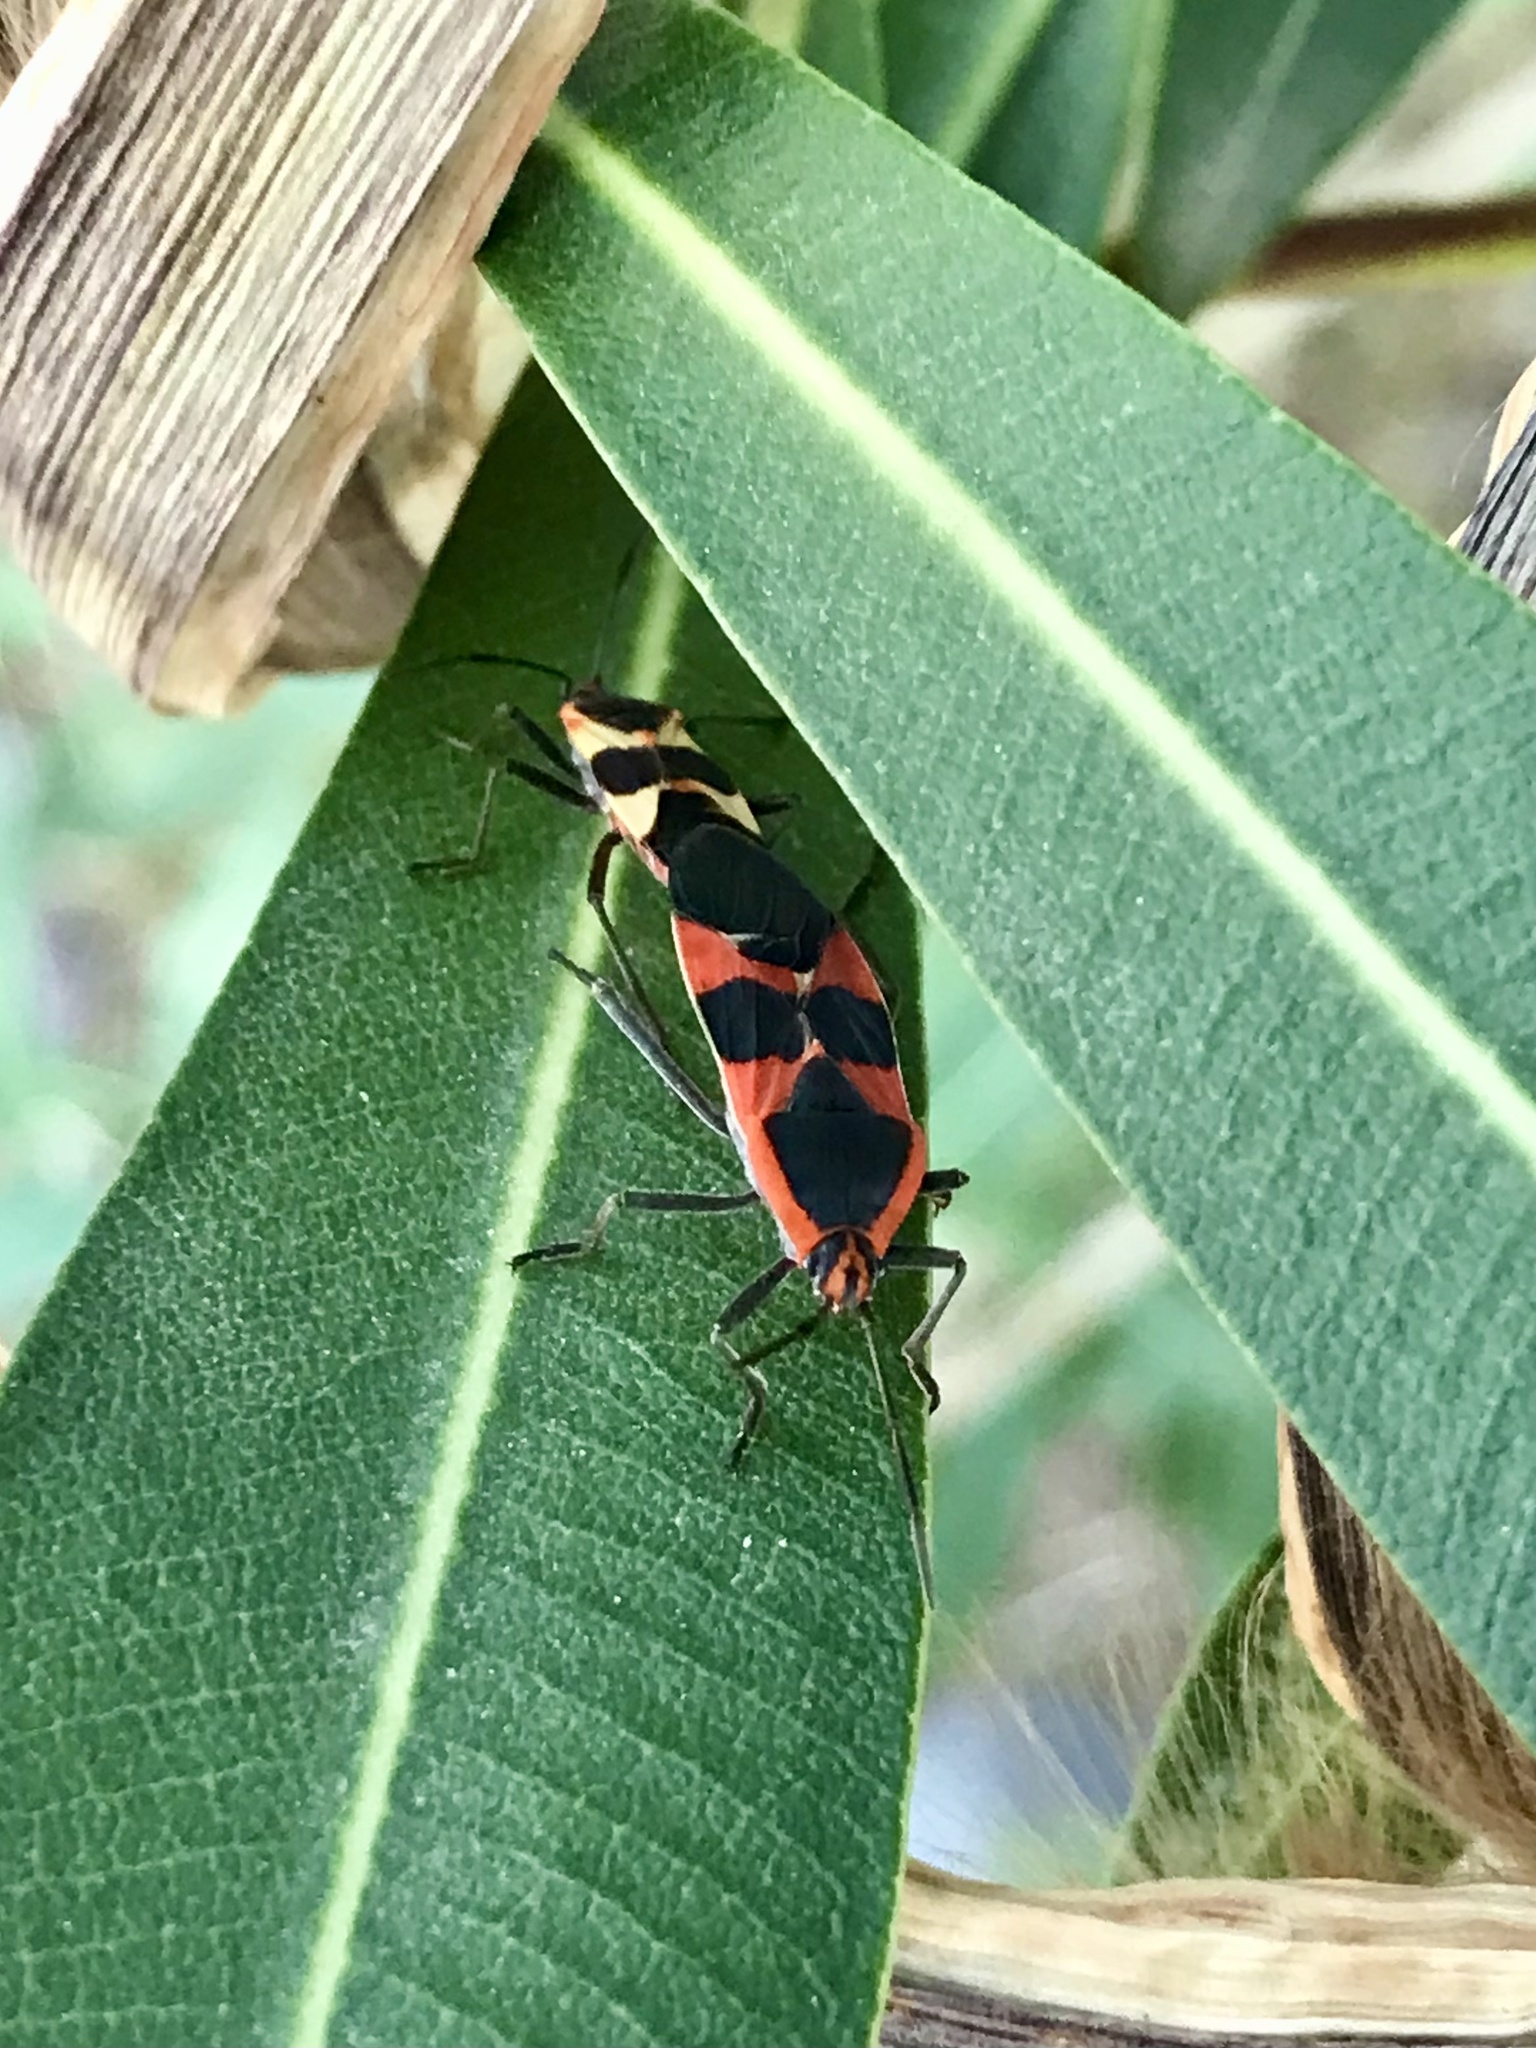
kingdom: Animalia
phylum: Arthropoda
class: Insecta
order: Hemiptera
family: Lygaeidae
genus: Oncopeltus
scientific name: Oncopeltus fasciatus
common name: Large milkweed bug
